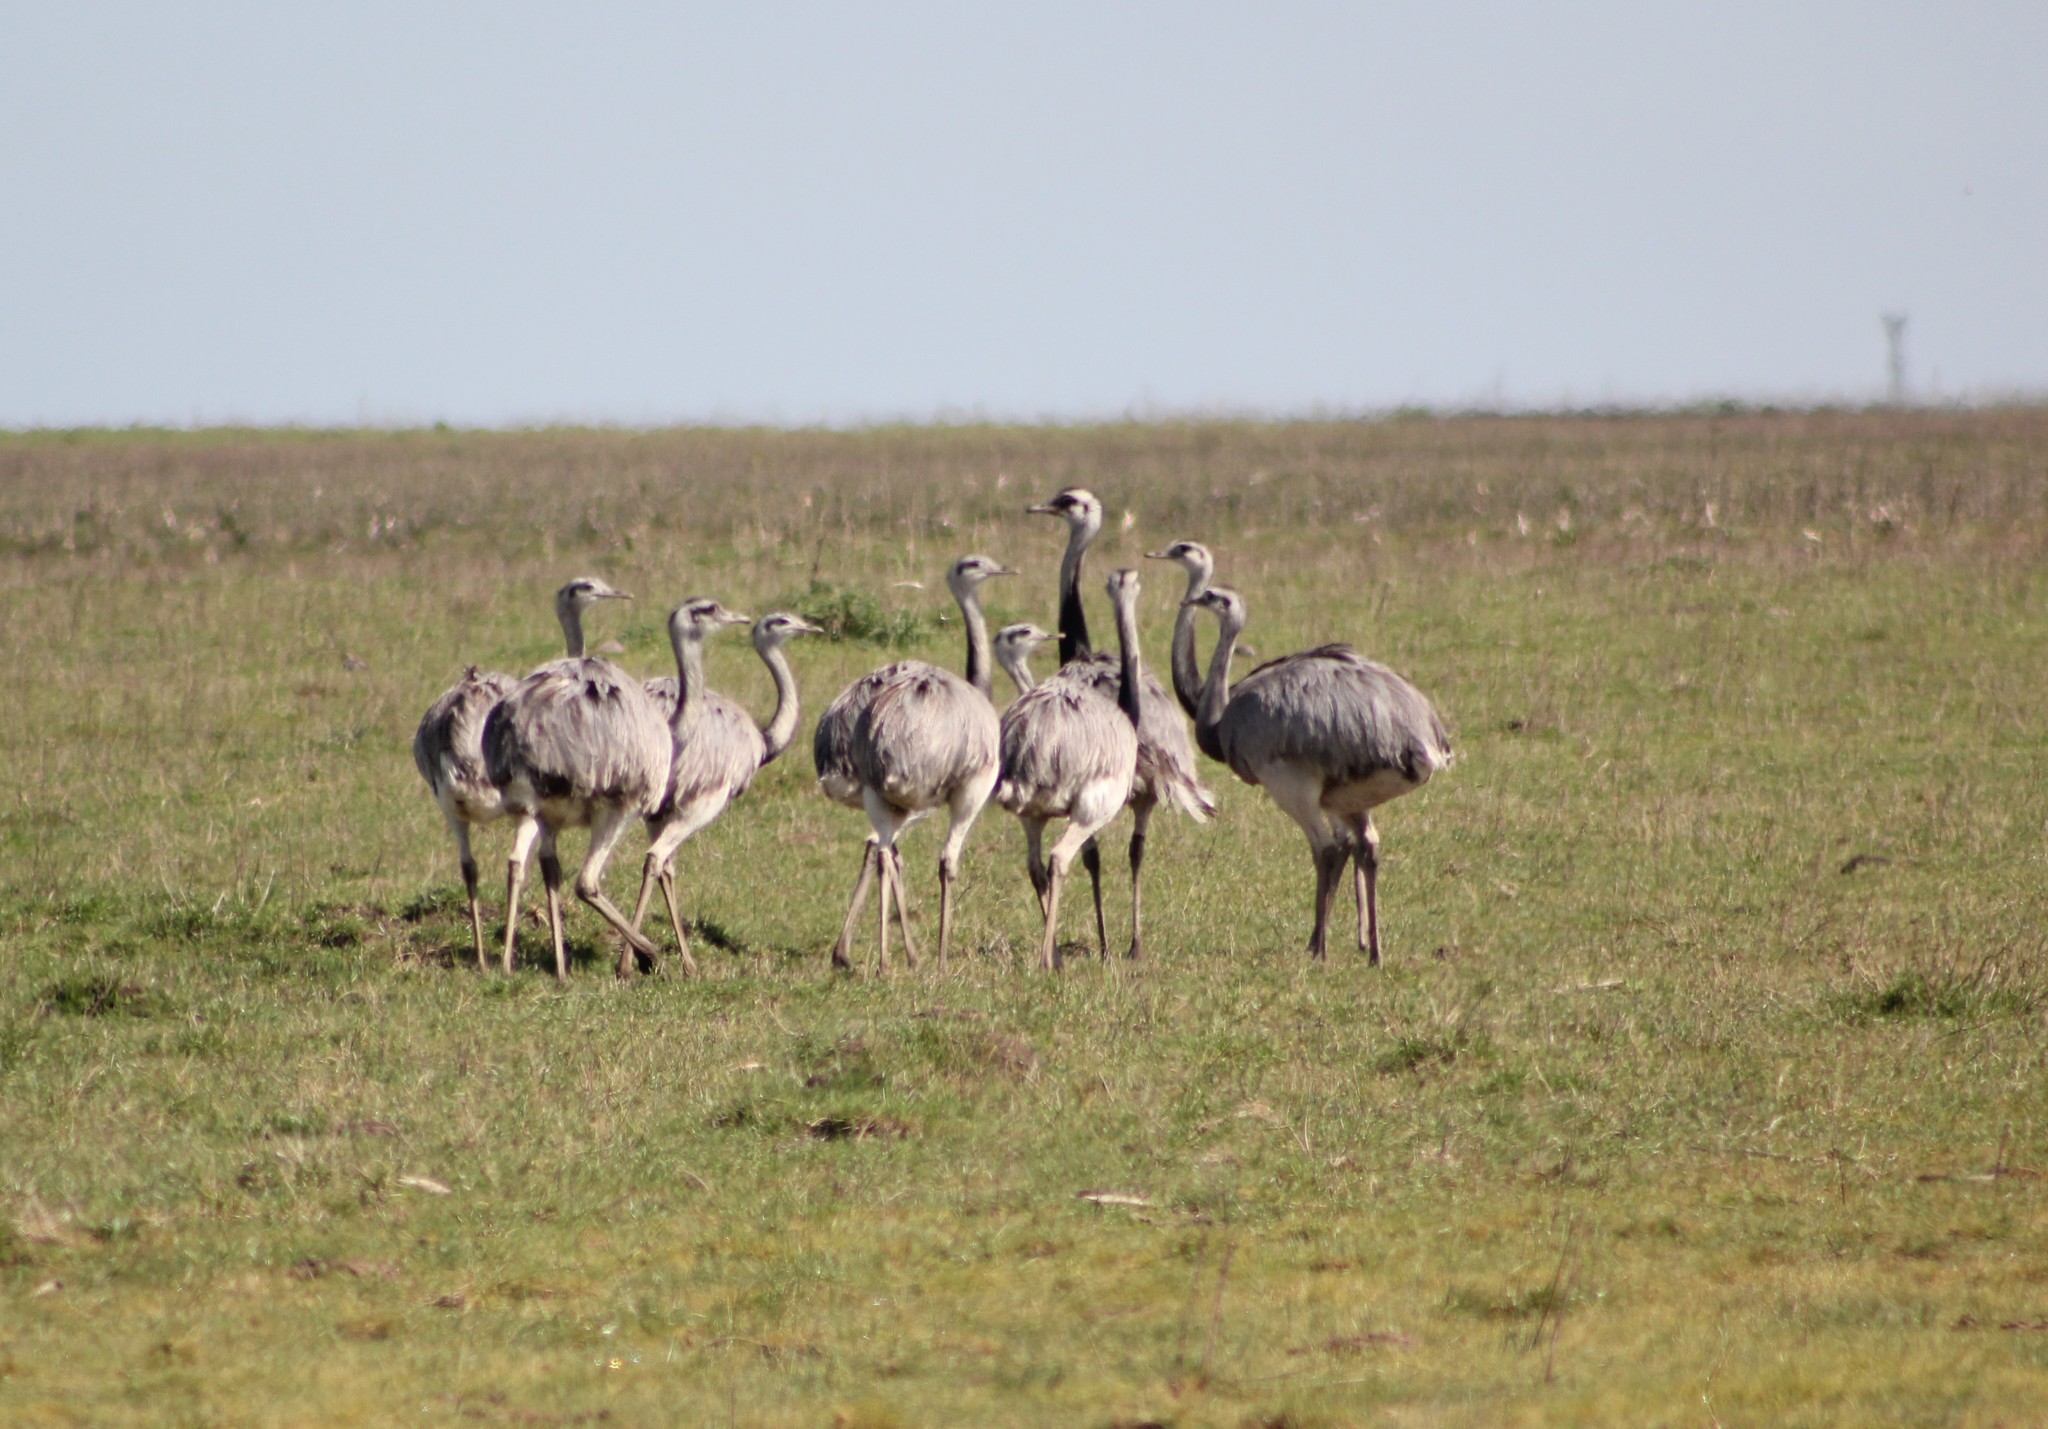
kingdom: Animalia
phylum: Chordata
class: Aves
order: Rheiformes
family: Rheidae
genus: Rhea
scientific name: Rhea americana
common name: Greater rhea
